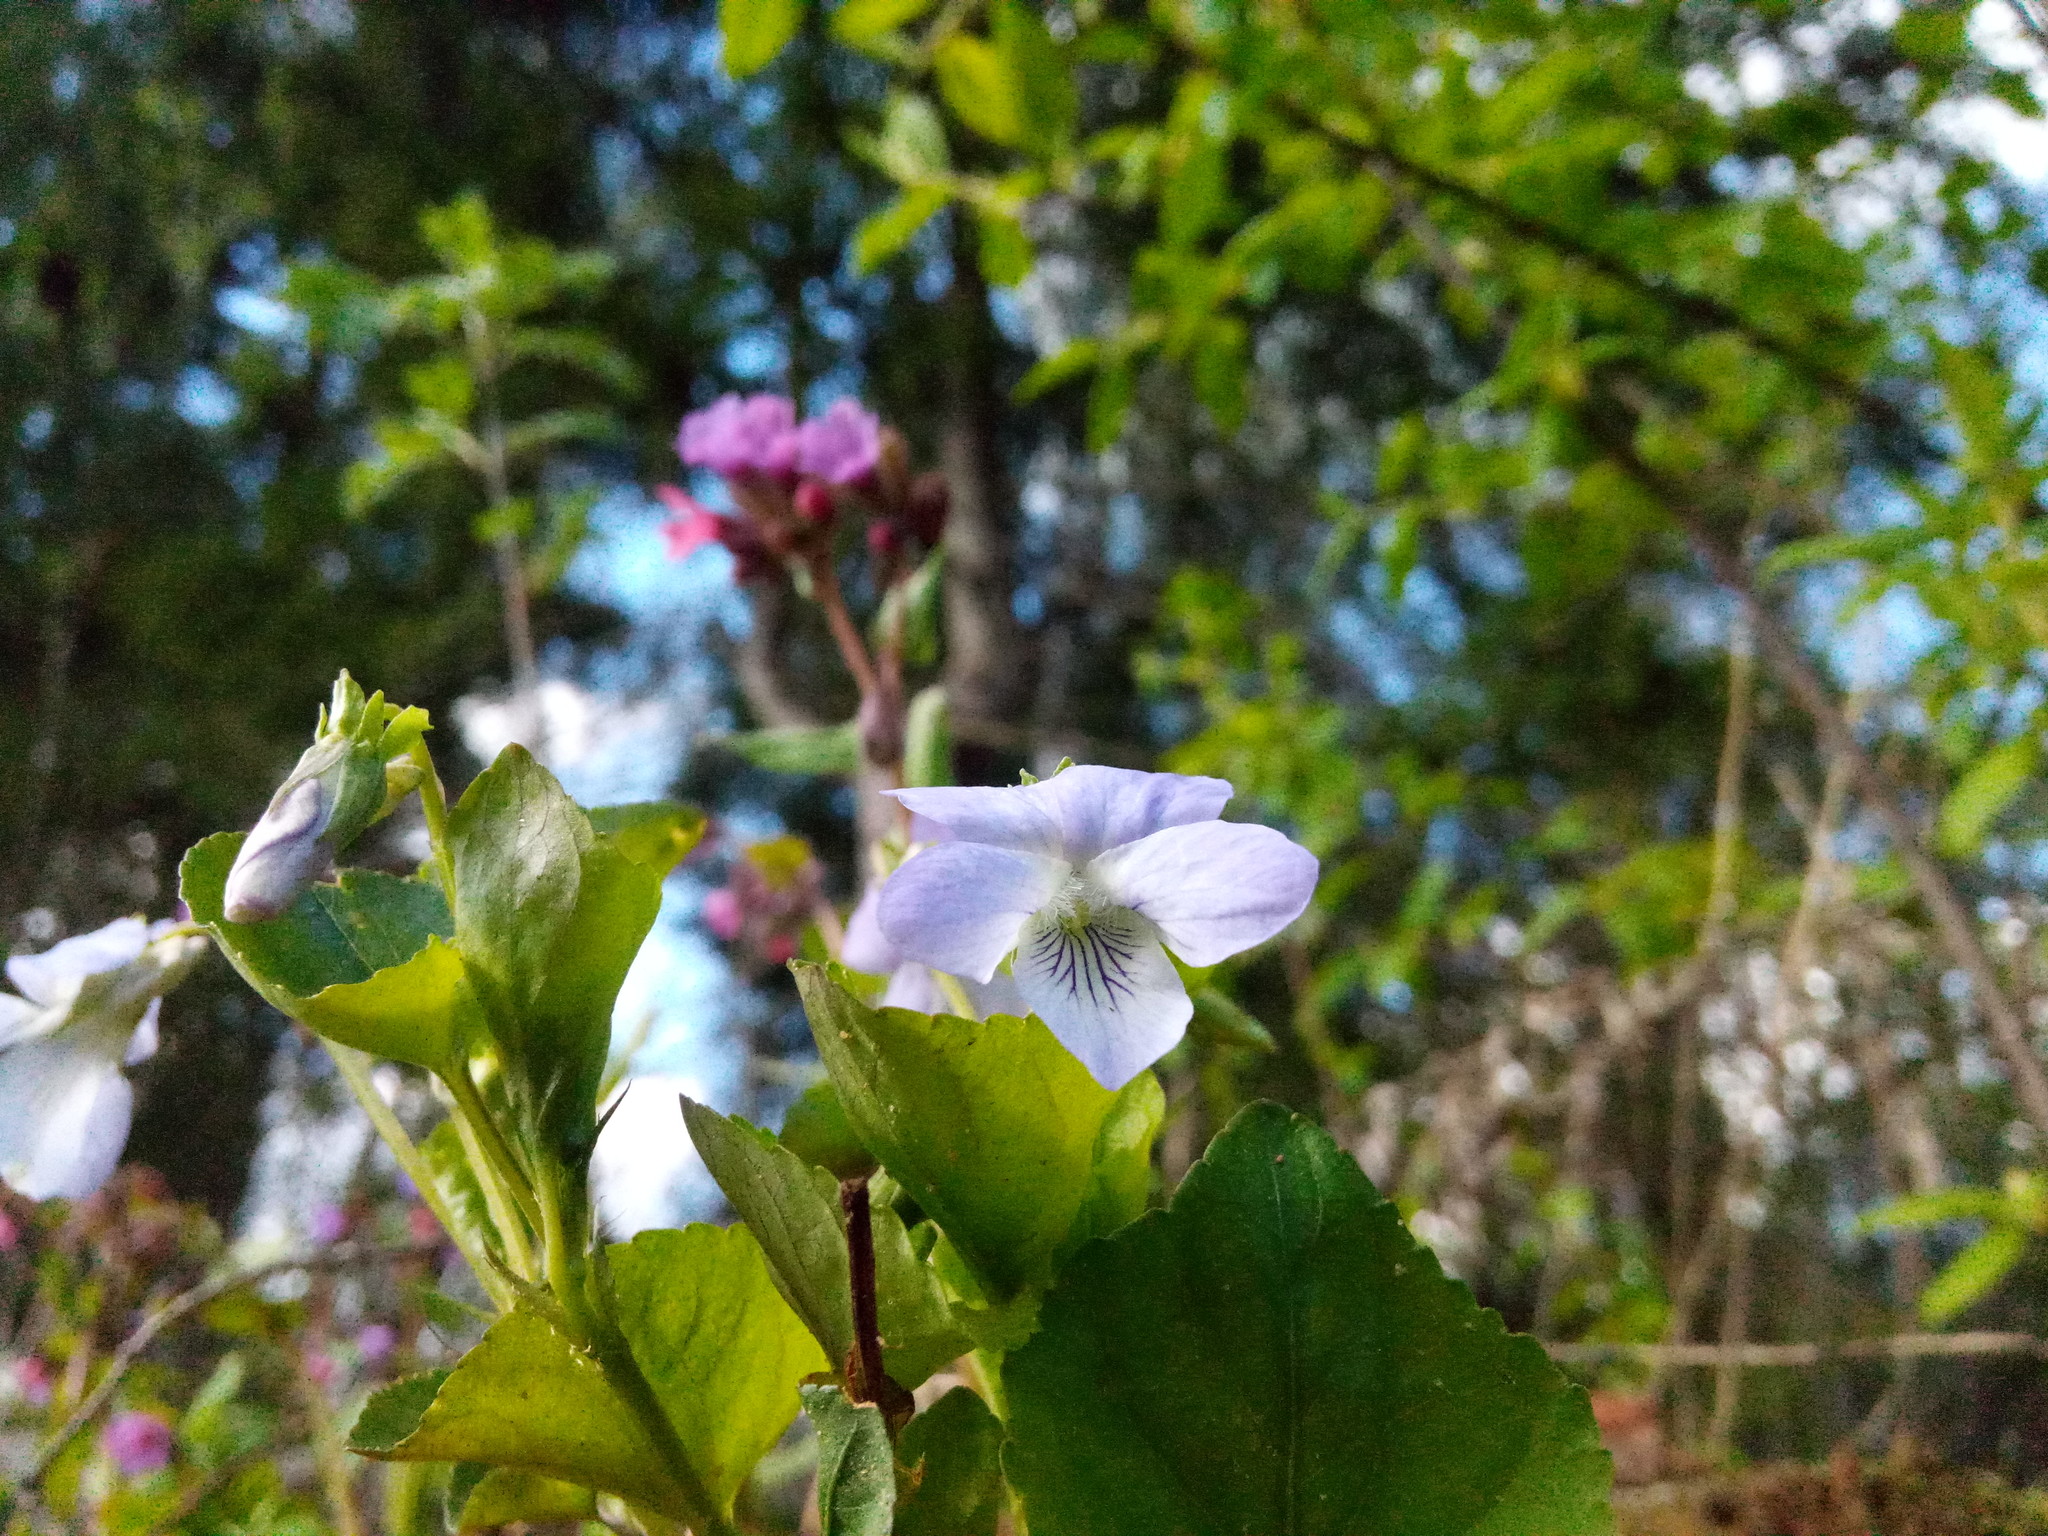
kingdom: Plantae
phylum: Tracheophyta
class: Magnoliopsida
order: Boraginales
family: Boraginaceae
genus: Pulmonaria
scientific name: Pulmonaria obscura
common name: Suffolk lungwort
